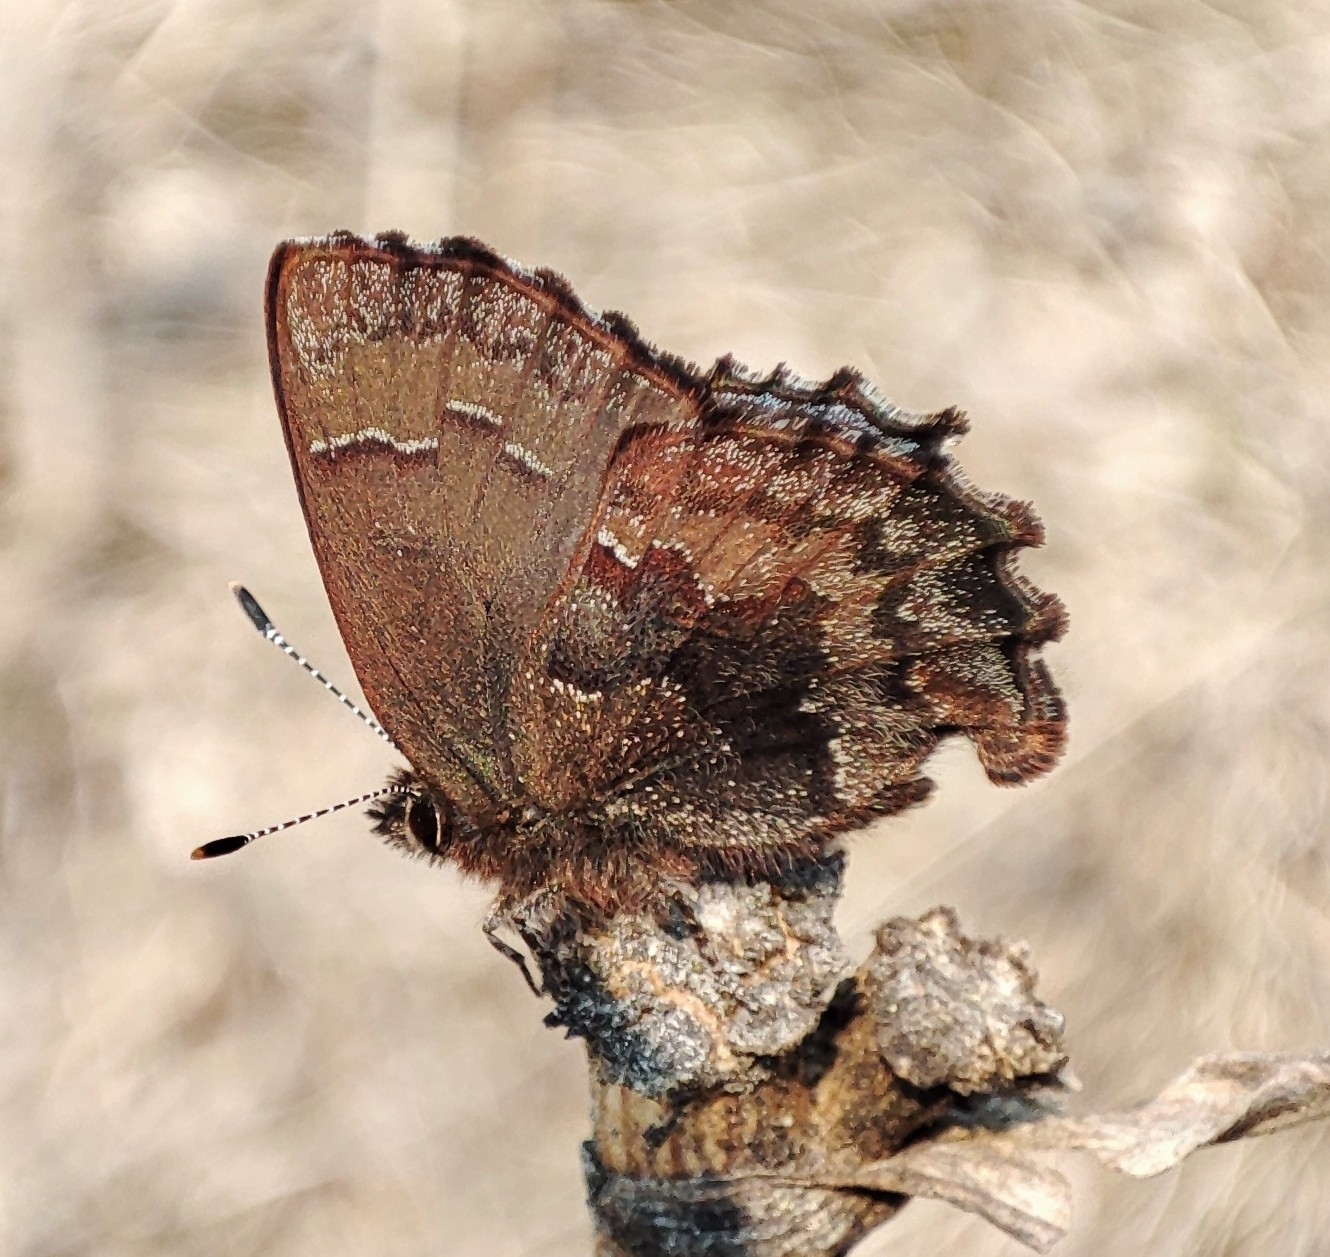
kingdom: Animalia
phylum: Arthropoda
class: Insecta
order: Lepidoptera
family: Lycaenidae
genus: Ginzia
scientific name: Ginzia Ahlbergia frivaldszkyi
